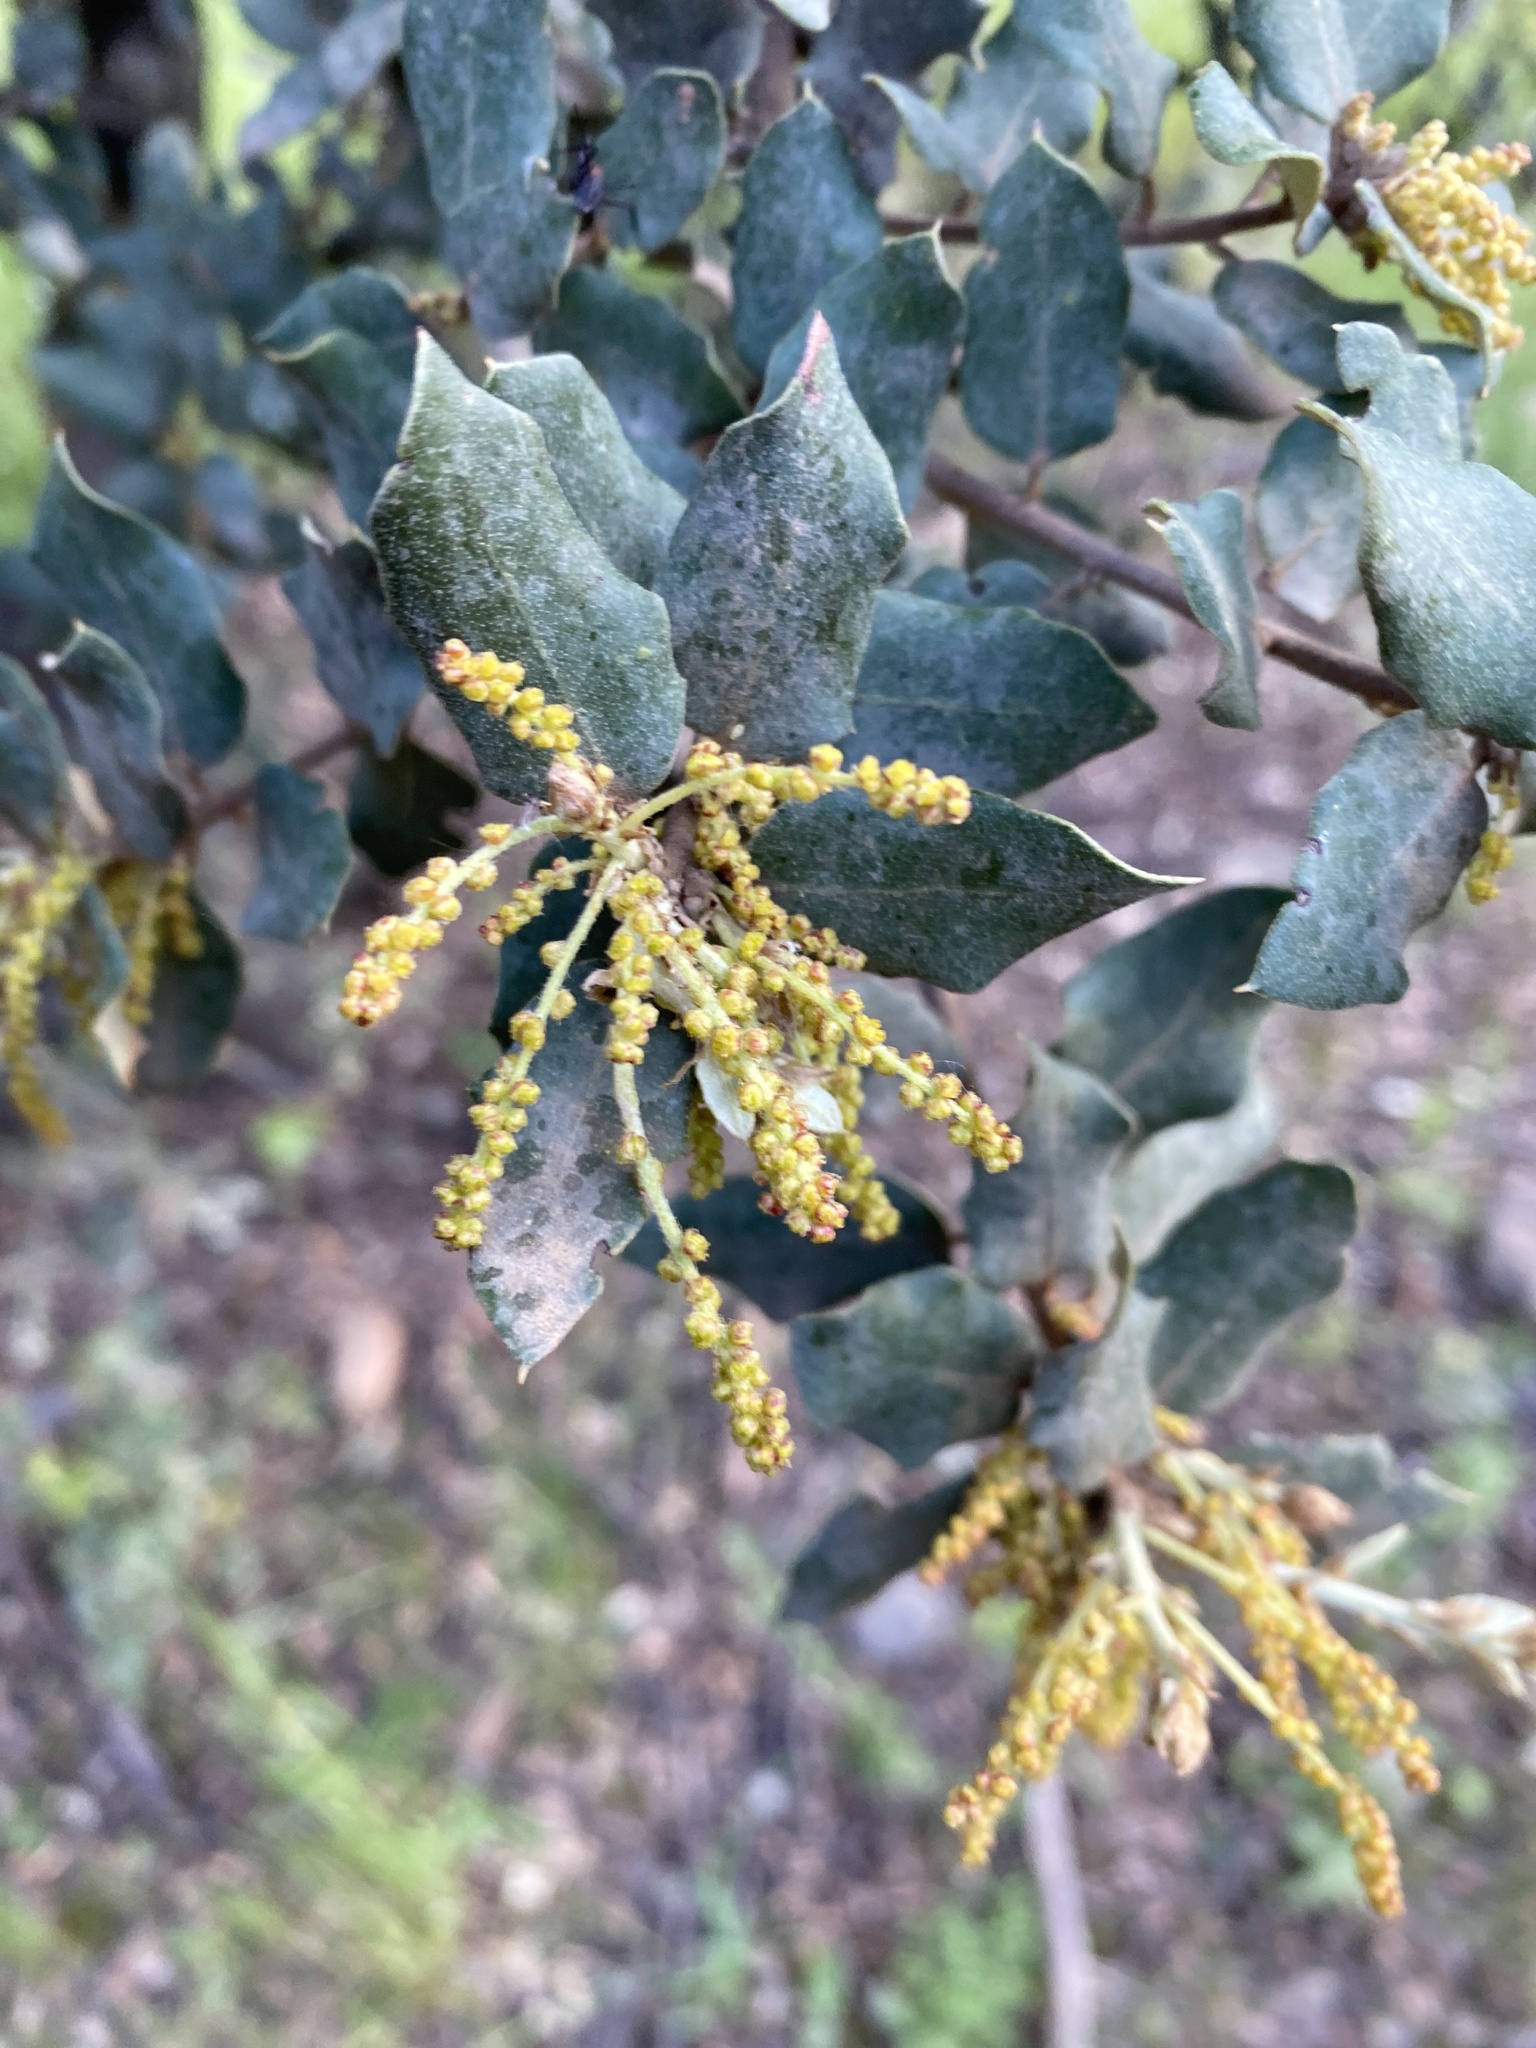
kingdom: Plantae
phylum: Tracheophyta
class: Magnoliopsida
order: Fagales
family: Fagaceae
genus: Quercus
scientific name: Quercus rotundifolia
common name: Holm oak
